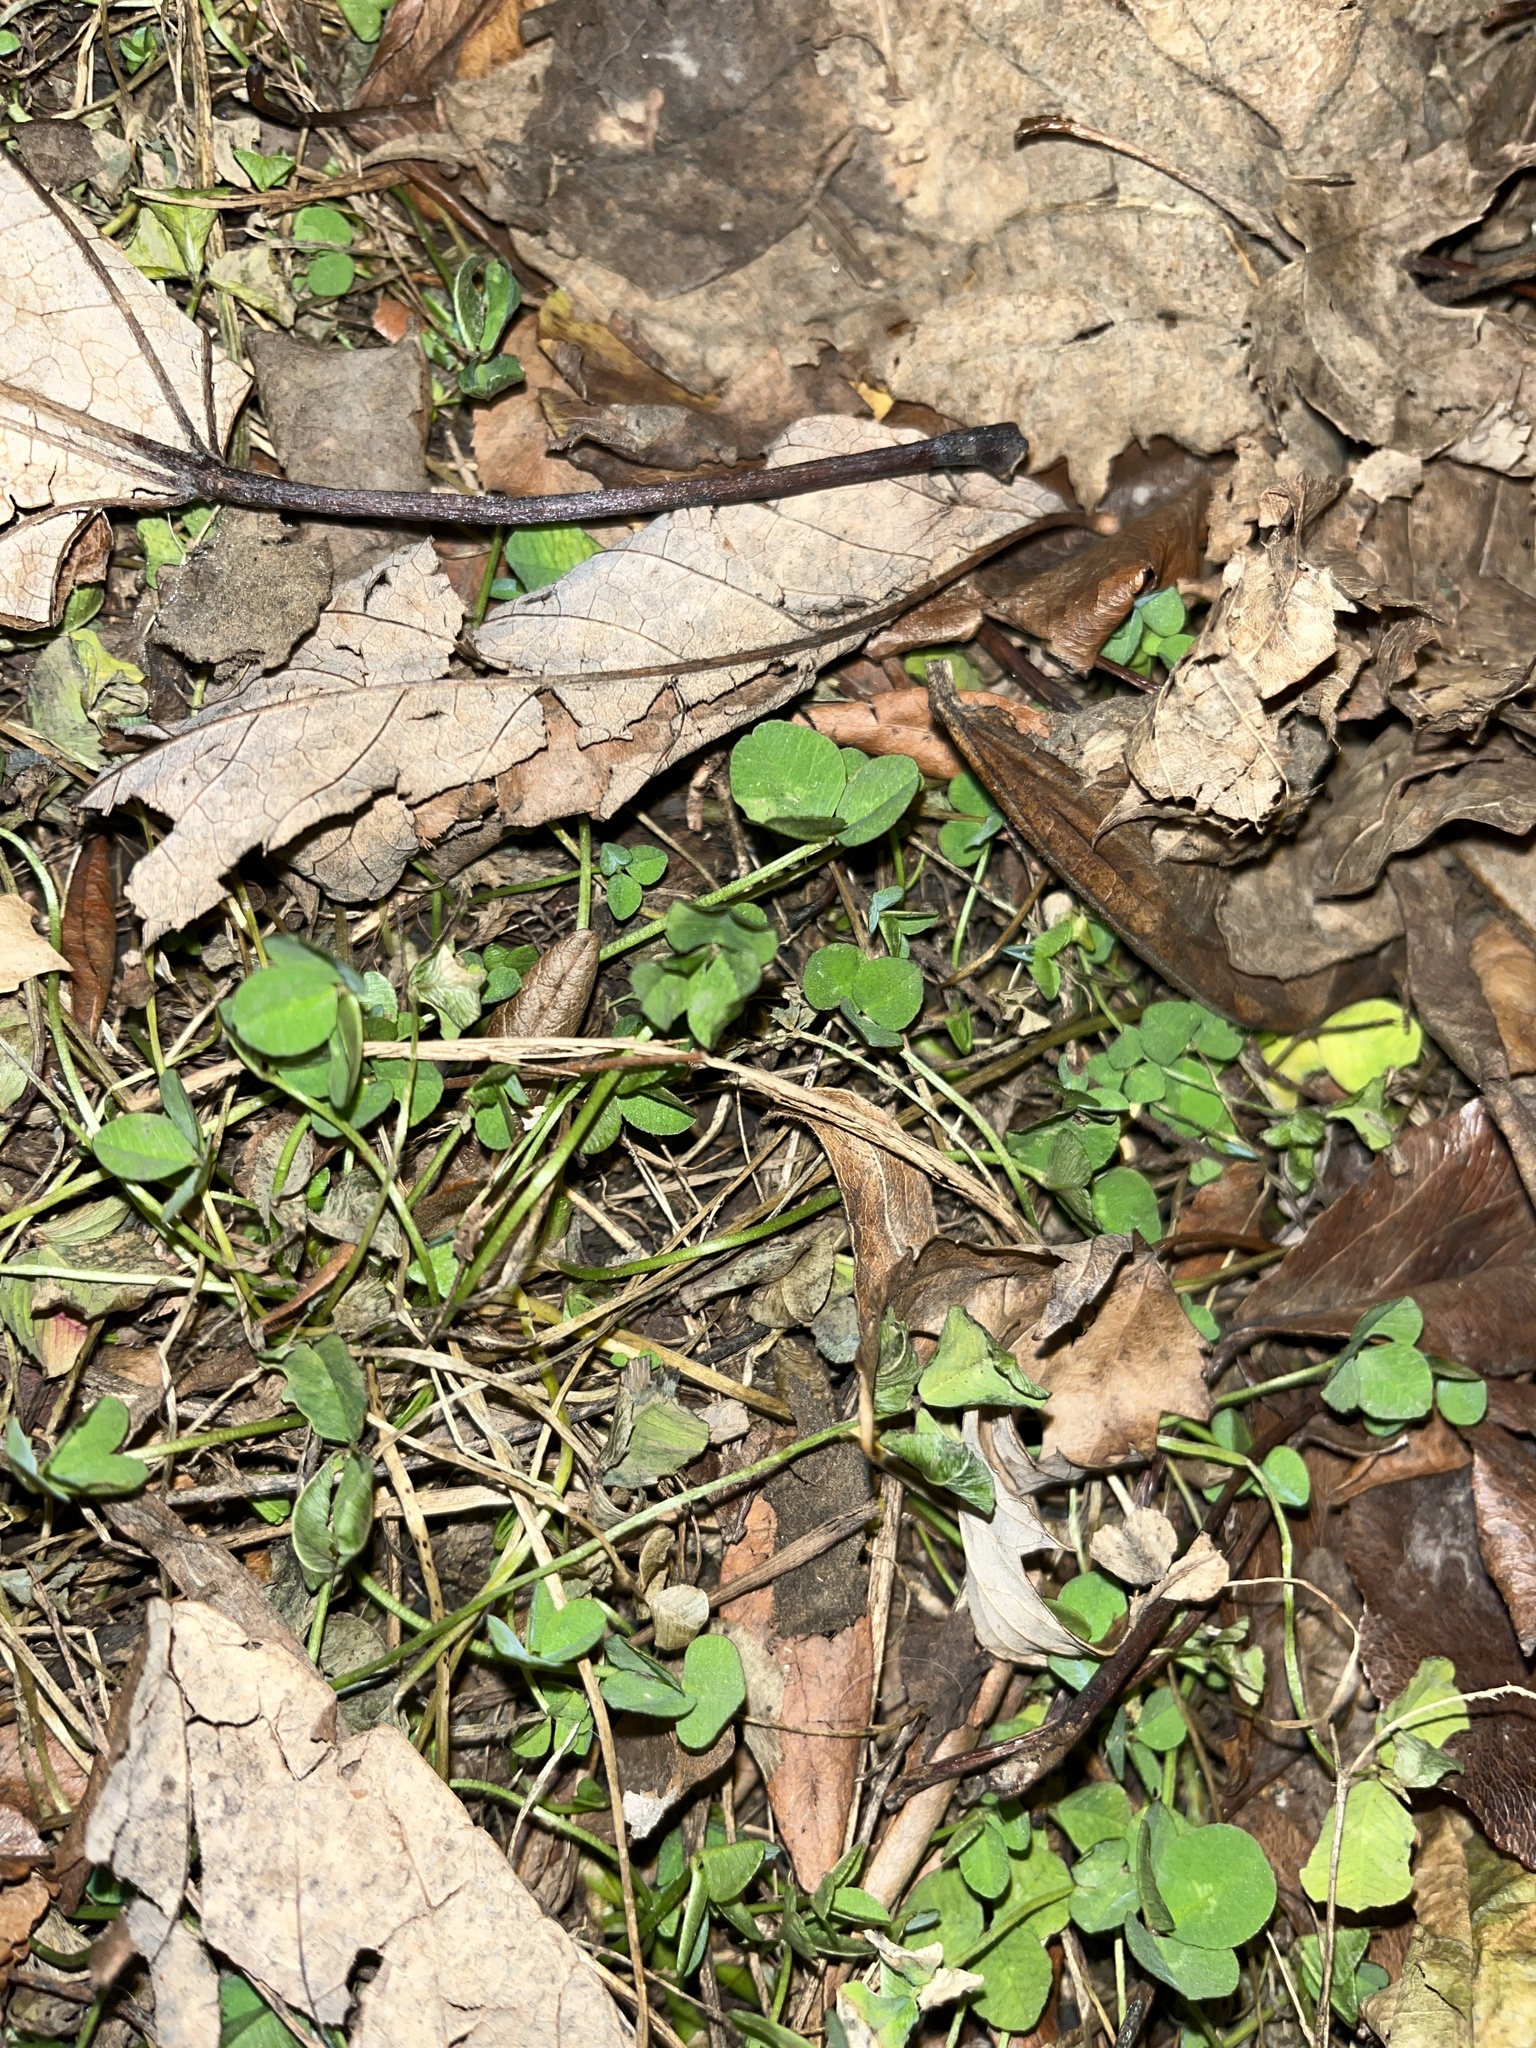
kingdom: Plantae
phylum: Tracheophyta
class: Magnoliopsida
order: Fabales
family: Fabaceae
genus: Trifolium
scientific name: Trifolium repens
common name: White clover
